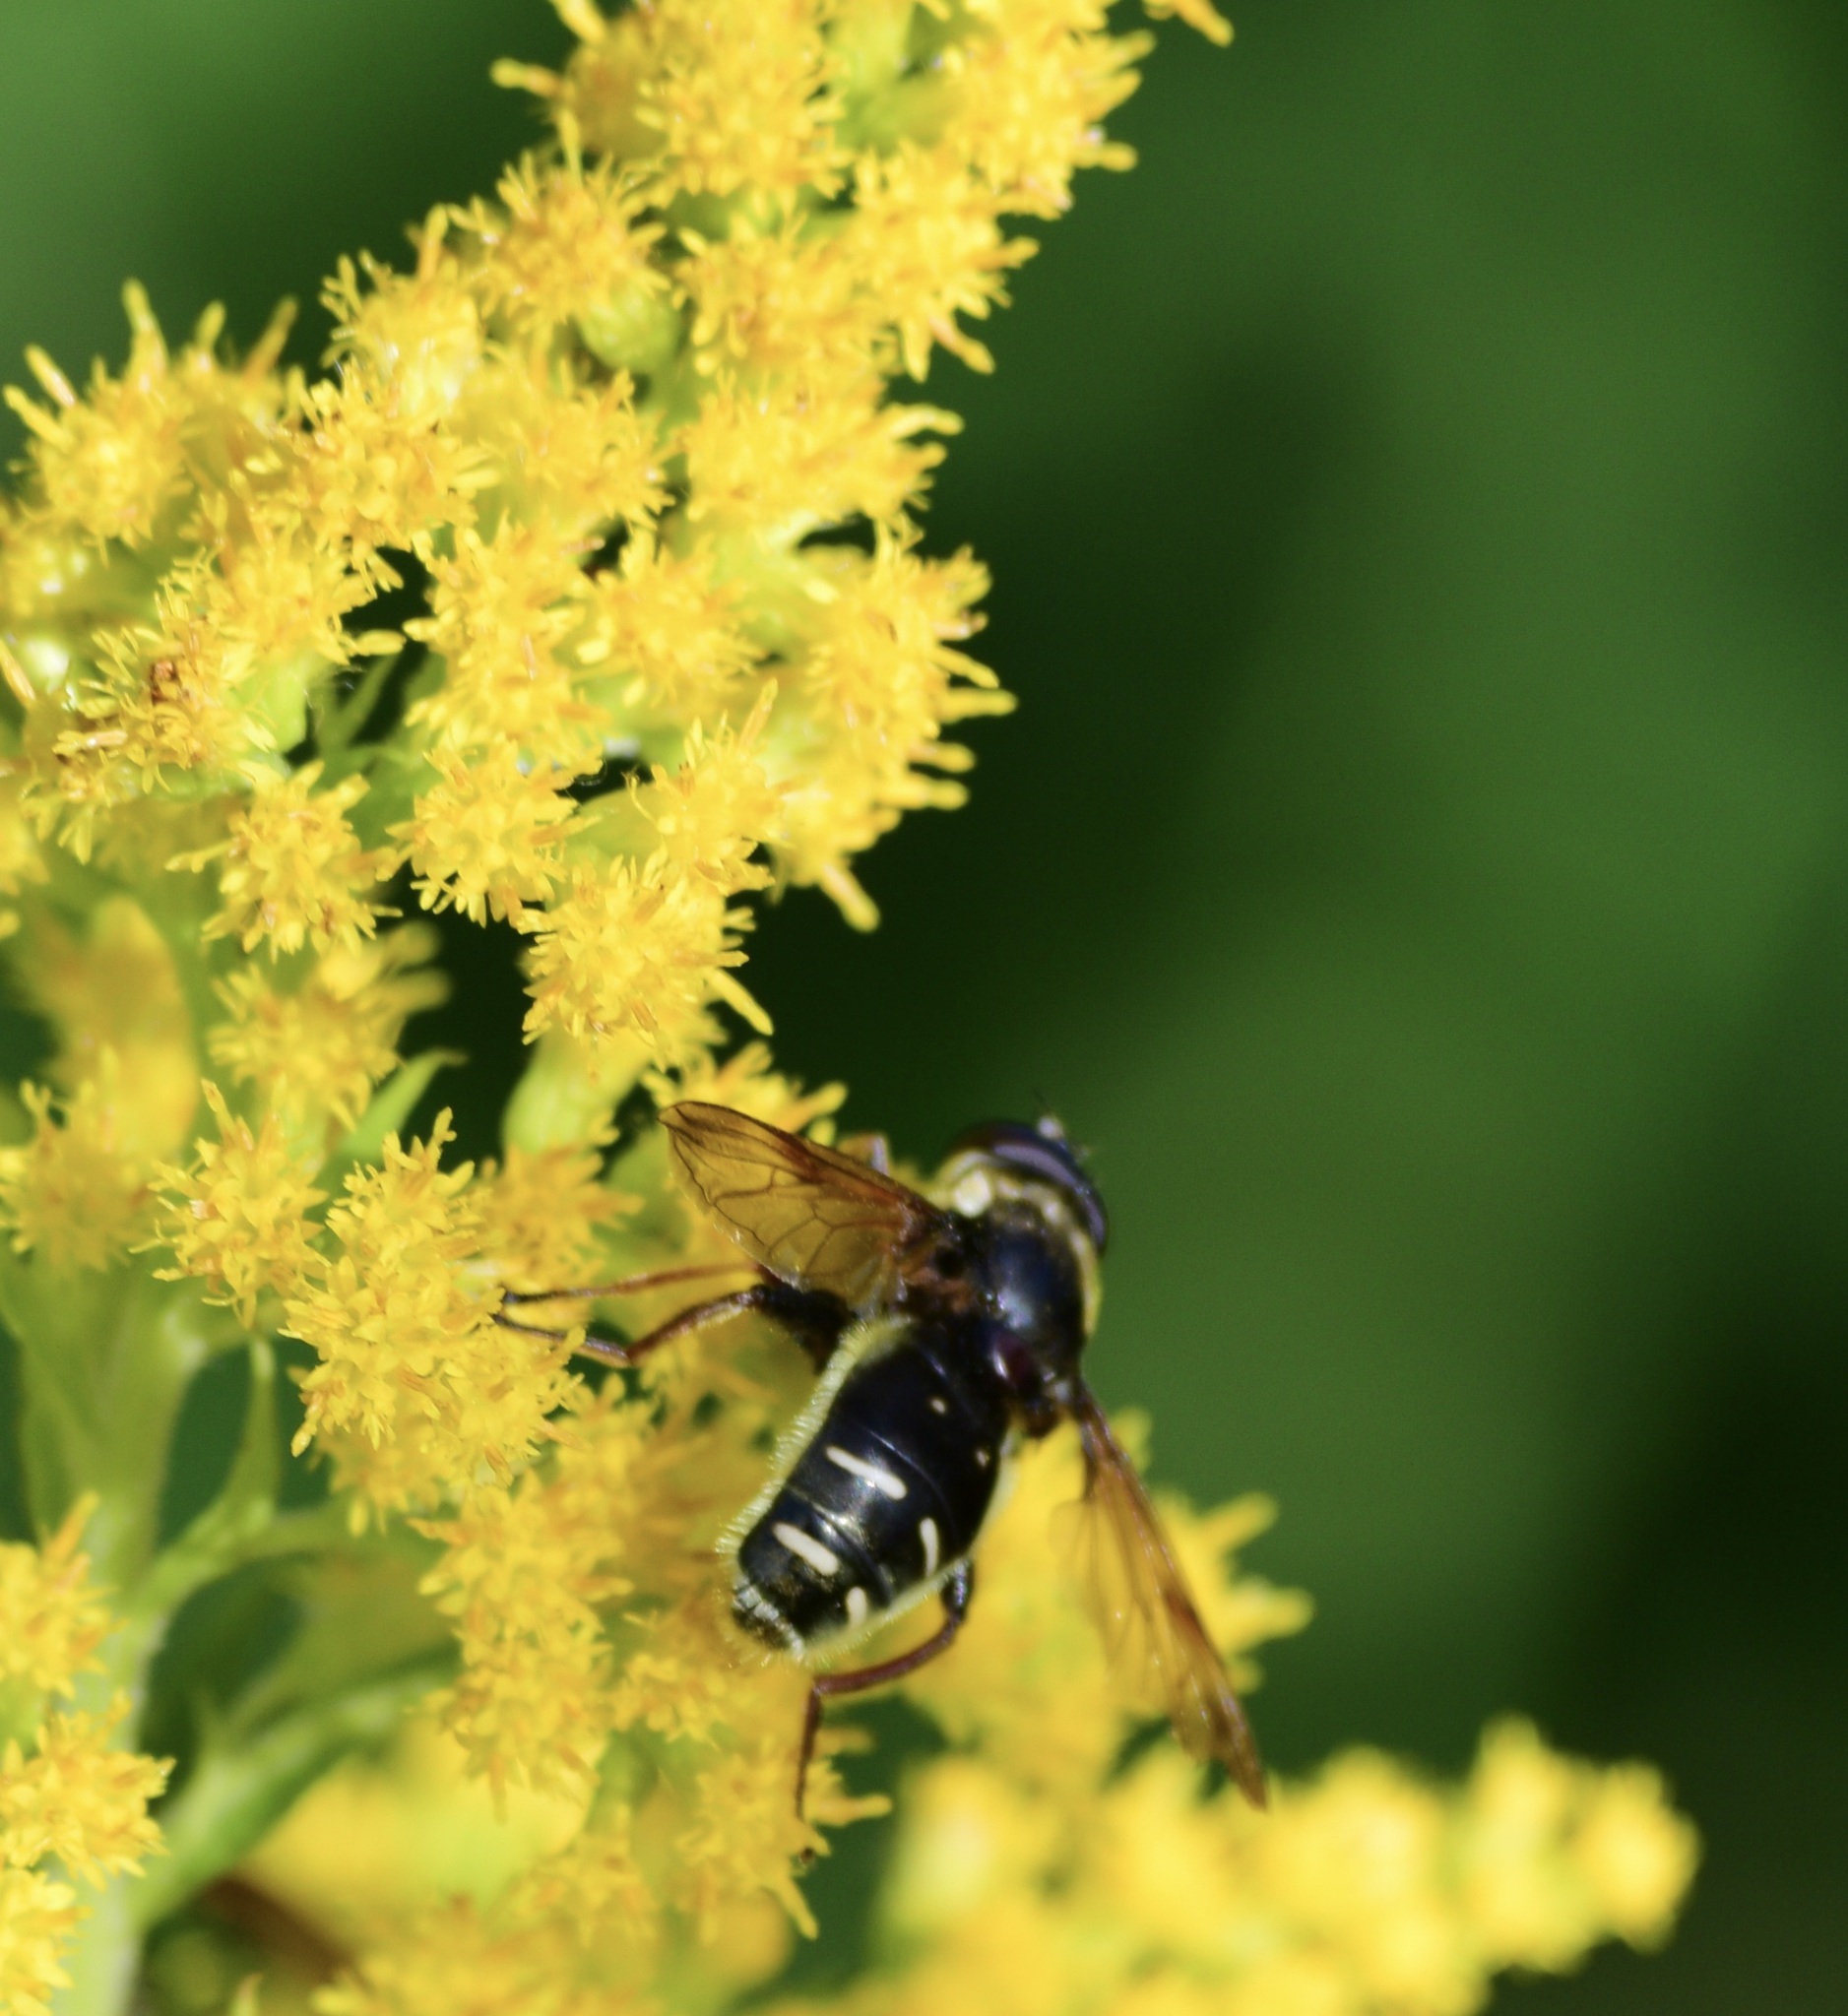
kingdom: Animalia
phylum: Arthropoda
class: Insecta
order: Diptera
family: Syrphidae
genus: Sericomyia
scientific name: Sericomyia militaris
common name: Narrow-banded pond fly
